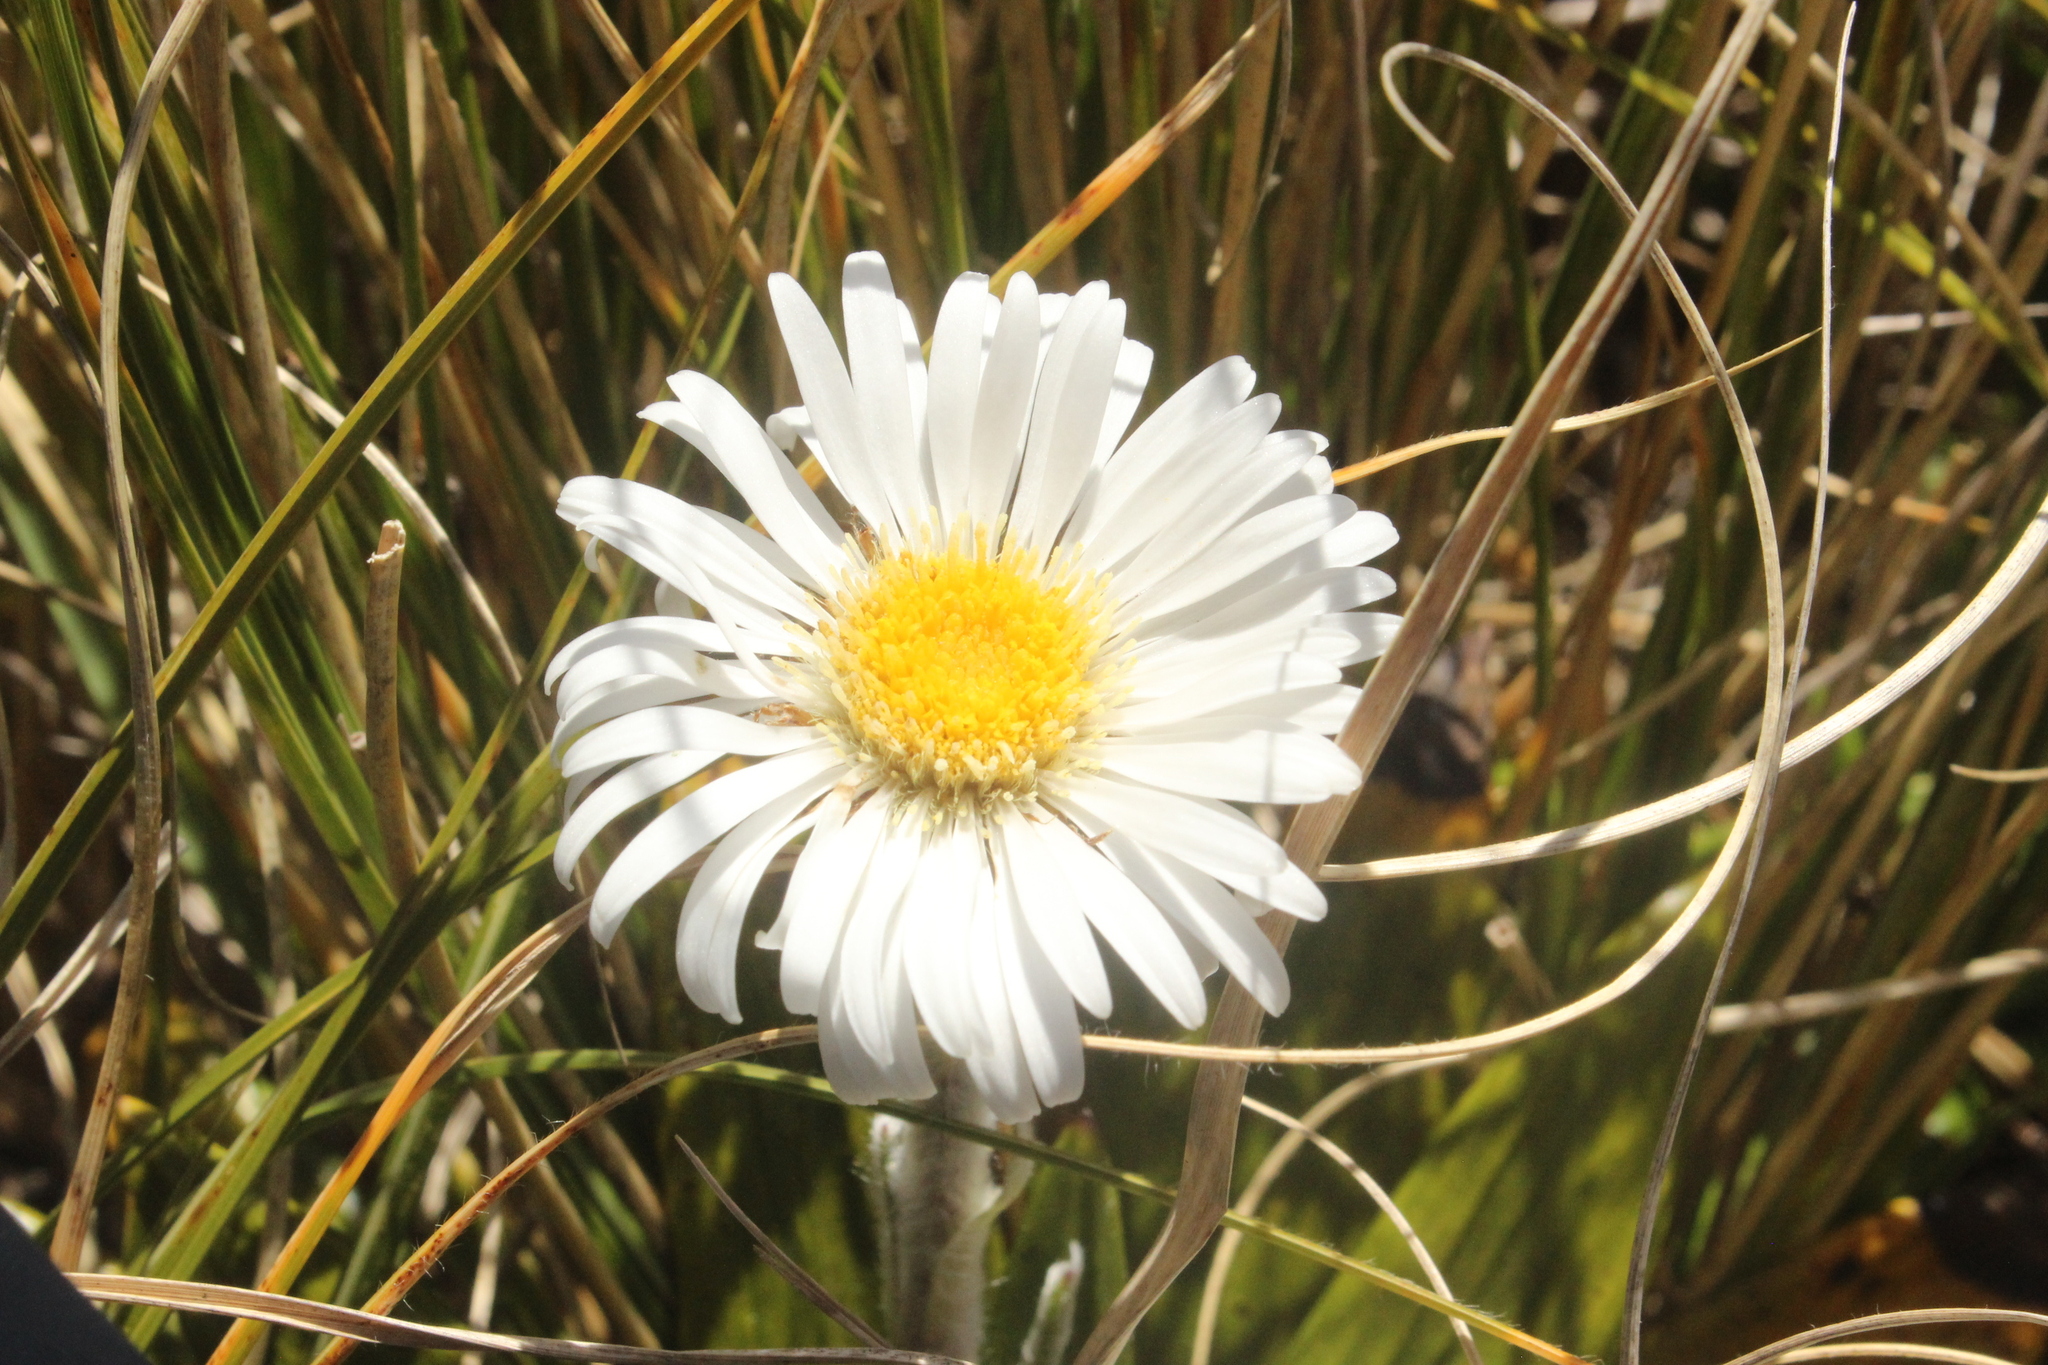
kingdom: Plantae
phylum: Tracheophyta
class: Magnoliopsida
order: Asterales
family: Asteraceae
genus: Celmisia
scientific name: Celmisia spectabilis
